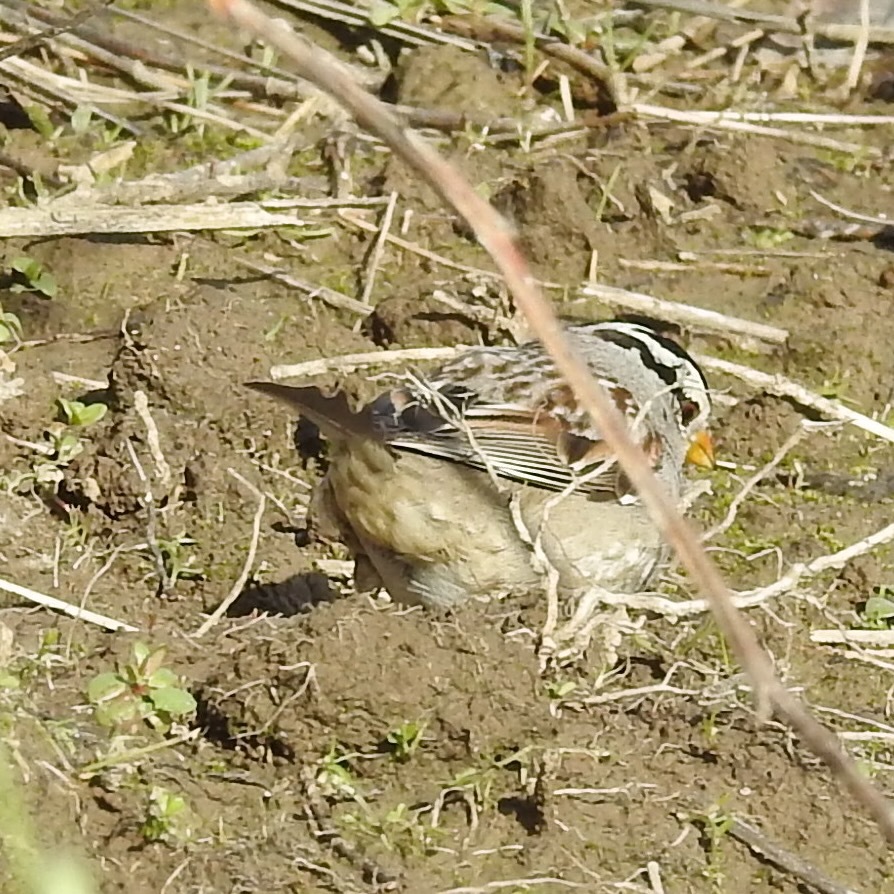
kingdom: Animalia
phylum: Chordata
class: Aves
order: Passeriformes
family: Passerellidae
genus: Zonotrichia
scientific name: Zonotrichia leucophrys
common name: White-crowned sparrow
